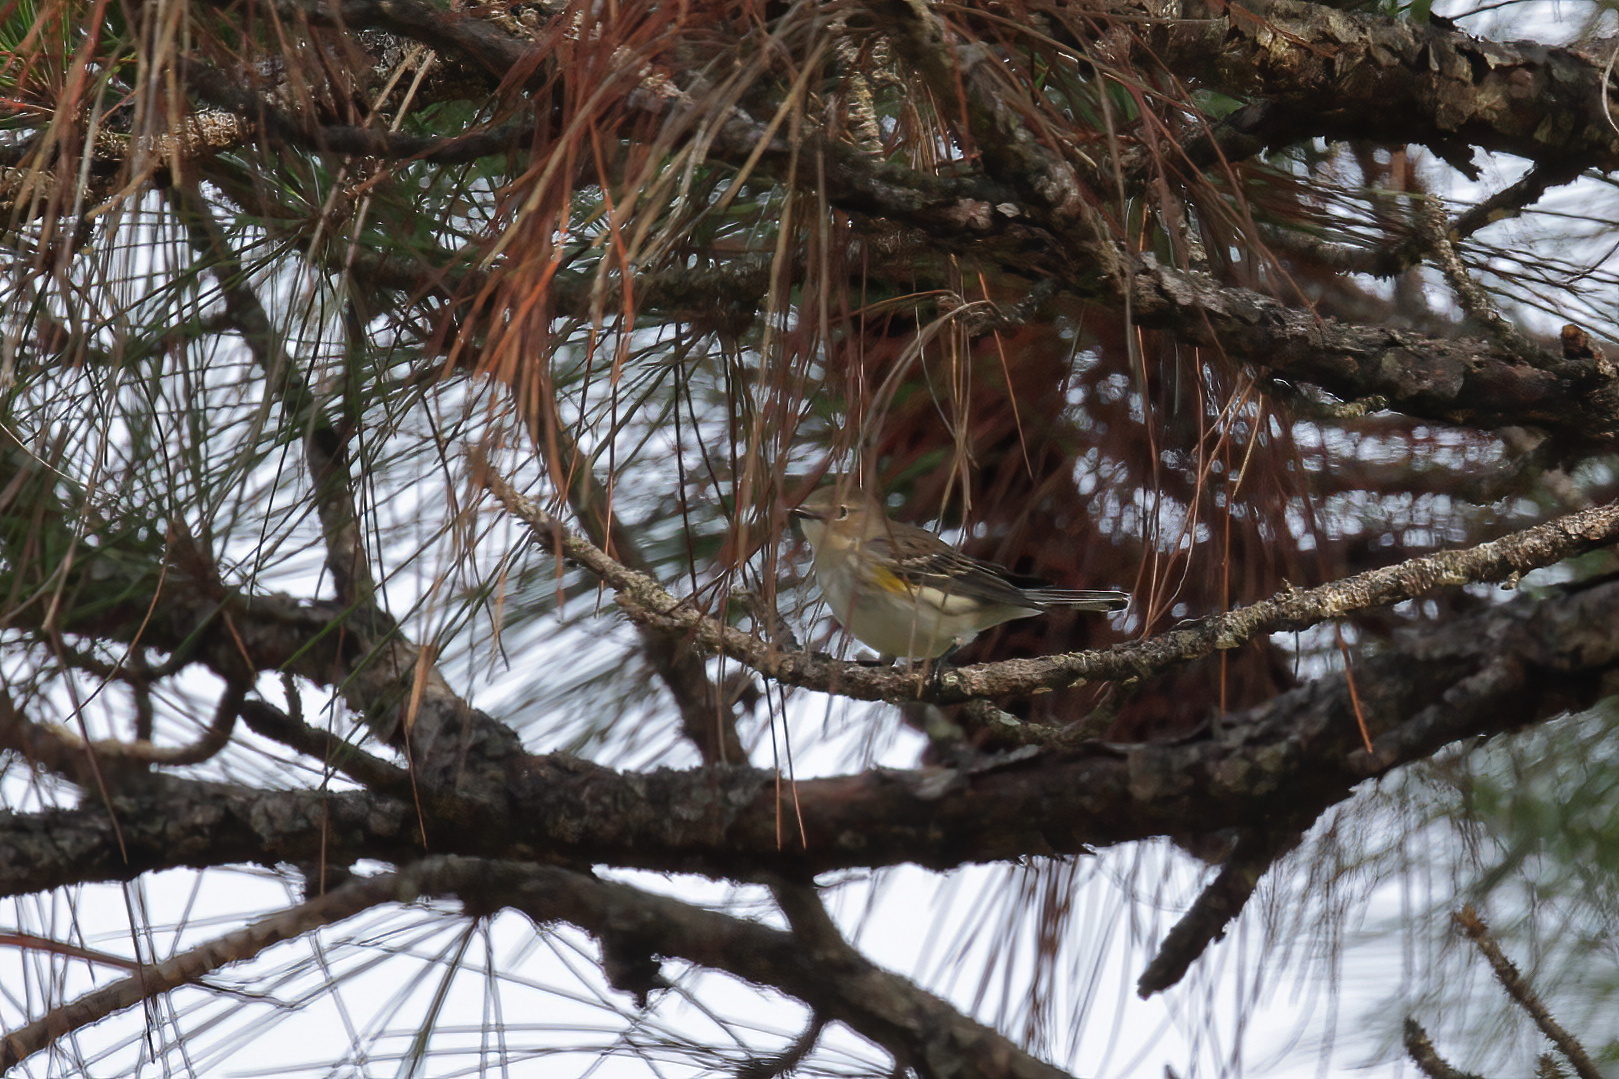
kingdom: Animalia
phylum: Chordata
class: Aves
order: Passeriformes
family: Parulidae
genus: Setophaga
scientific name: Setophaga coronata
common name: Myrtle warbler
